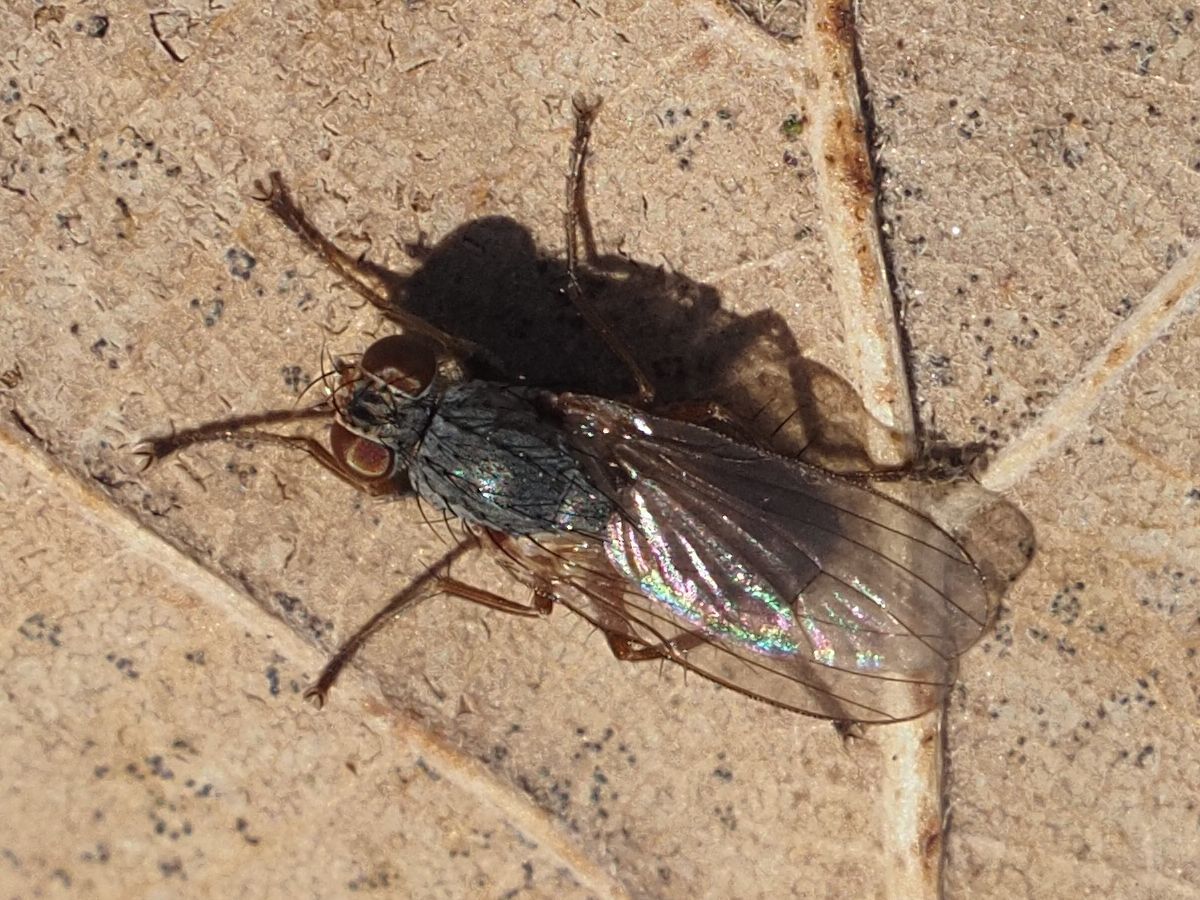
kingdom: Animalia
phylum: Arthropoda
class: Insecta
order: Diptera
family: Muscidae
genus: Lispocephala
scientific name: Lispocephala brachialis
